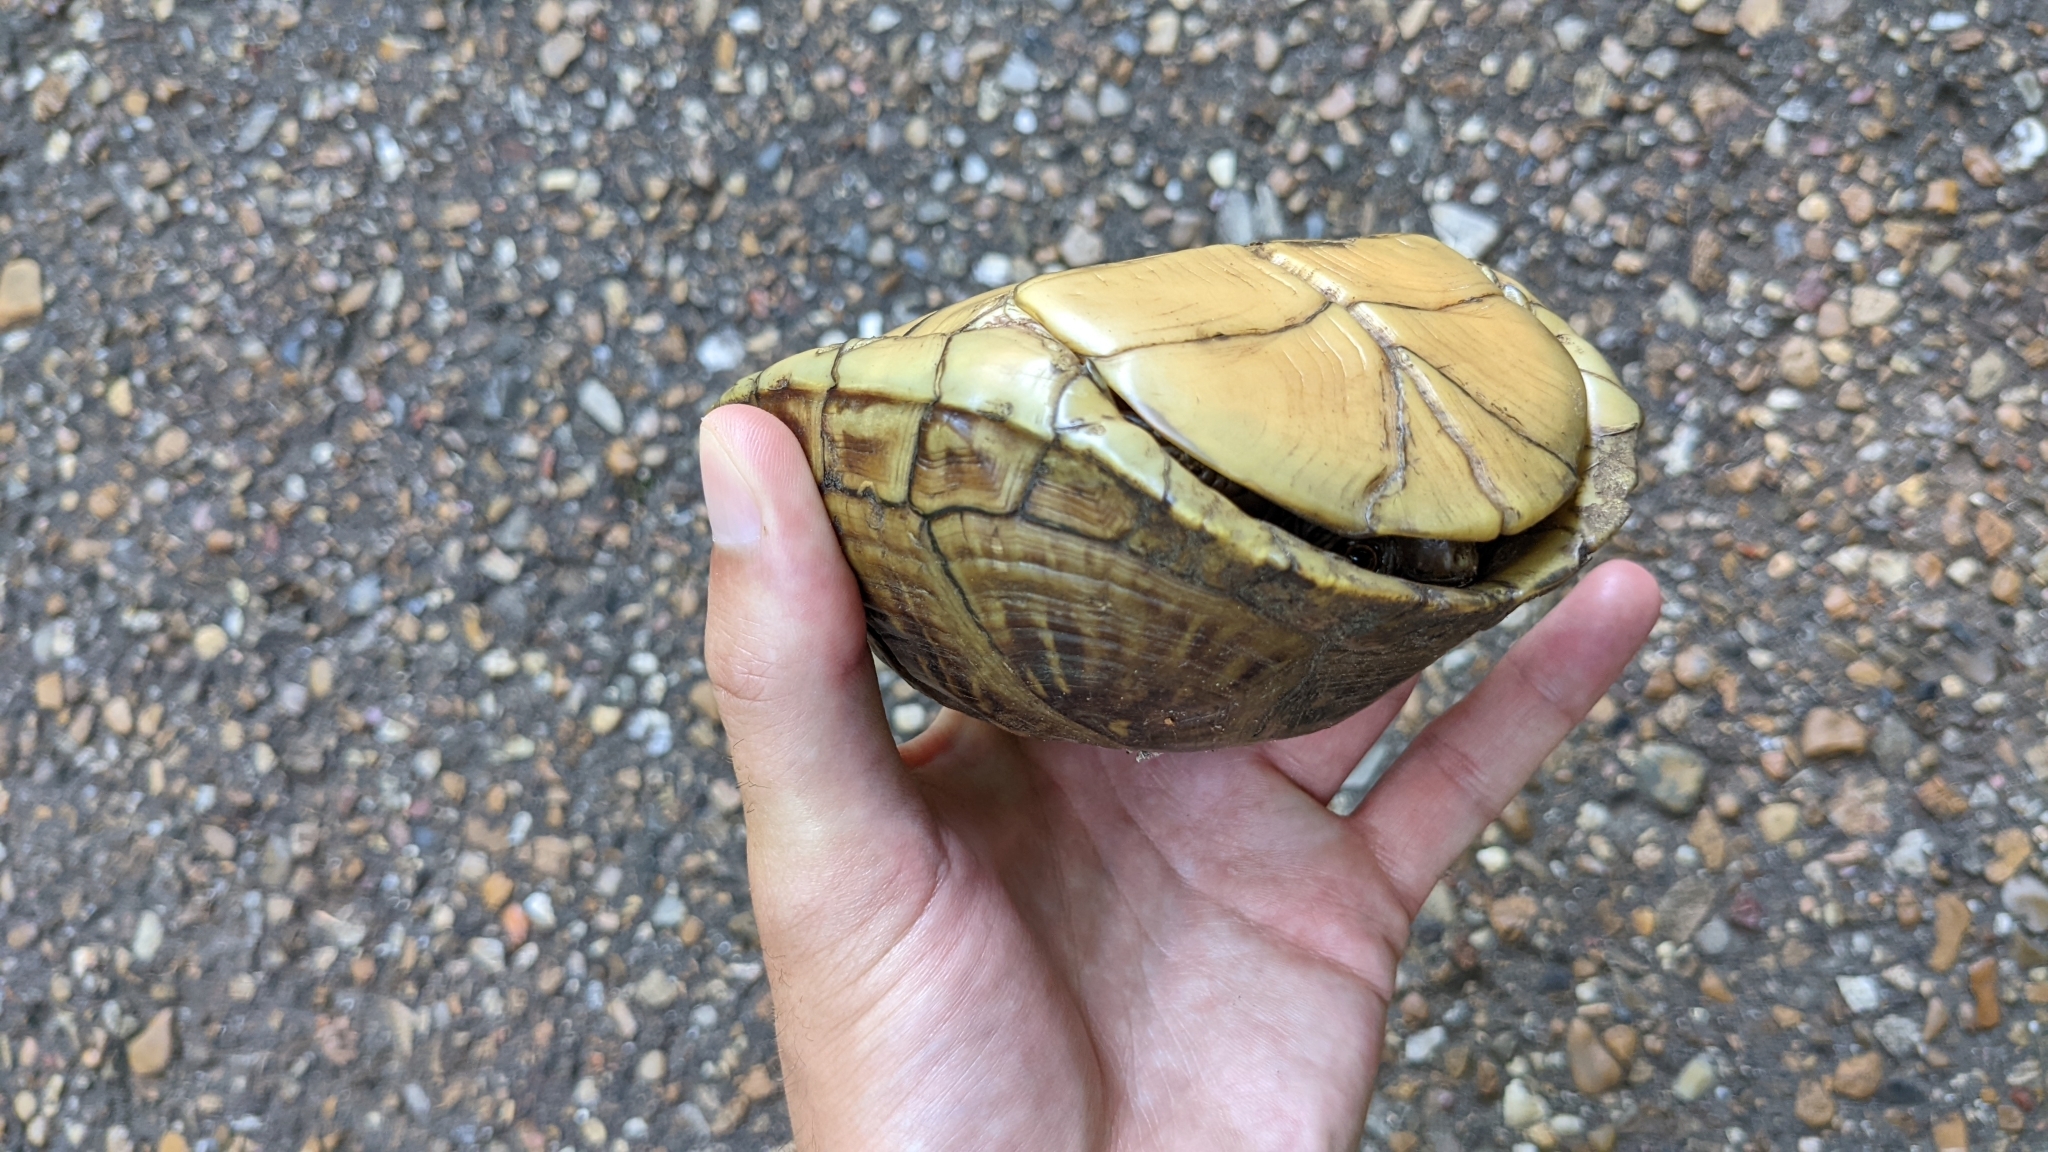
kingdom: Animalia
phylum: Chordata
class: Testudines
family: Emydidae
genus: Terrapene
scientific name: Terrapene carolina
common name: Common box turtle
